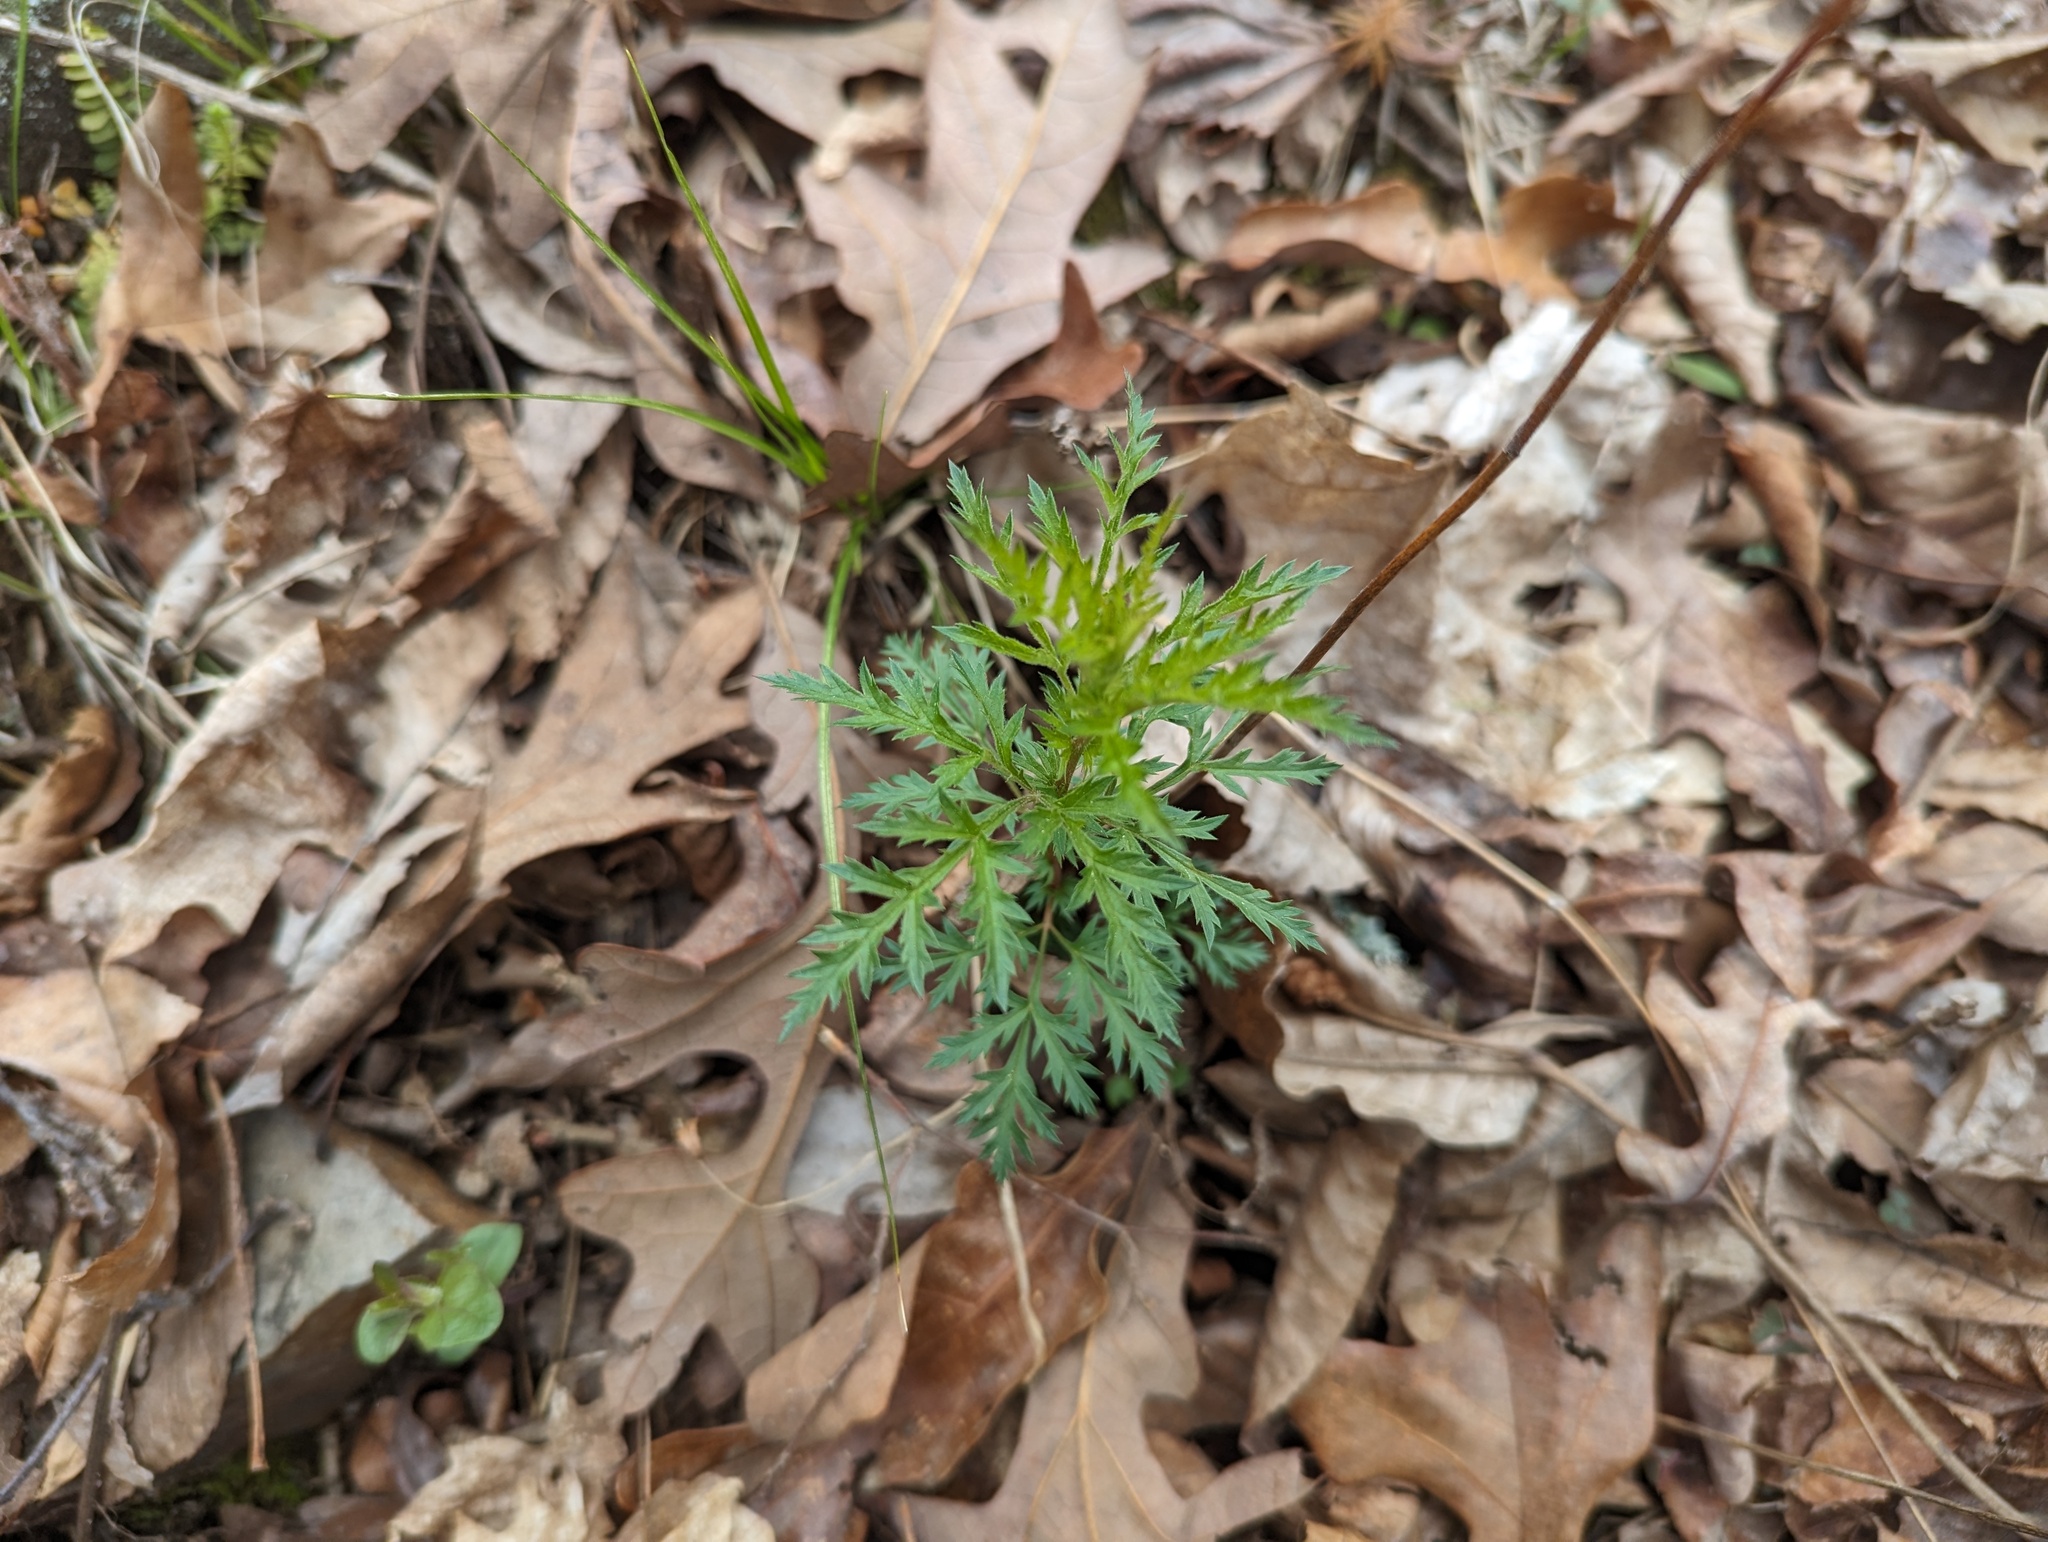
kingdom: Plantae
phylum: Tracheophyta
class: Magnoliopsida
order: Rosales
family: Rosaceae
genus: Gillenia
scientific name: Gillenia stipulata
